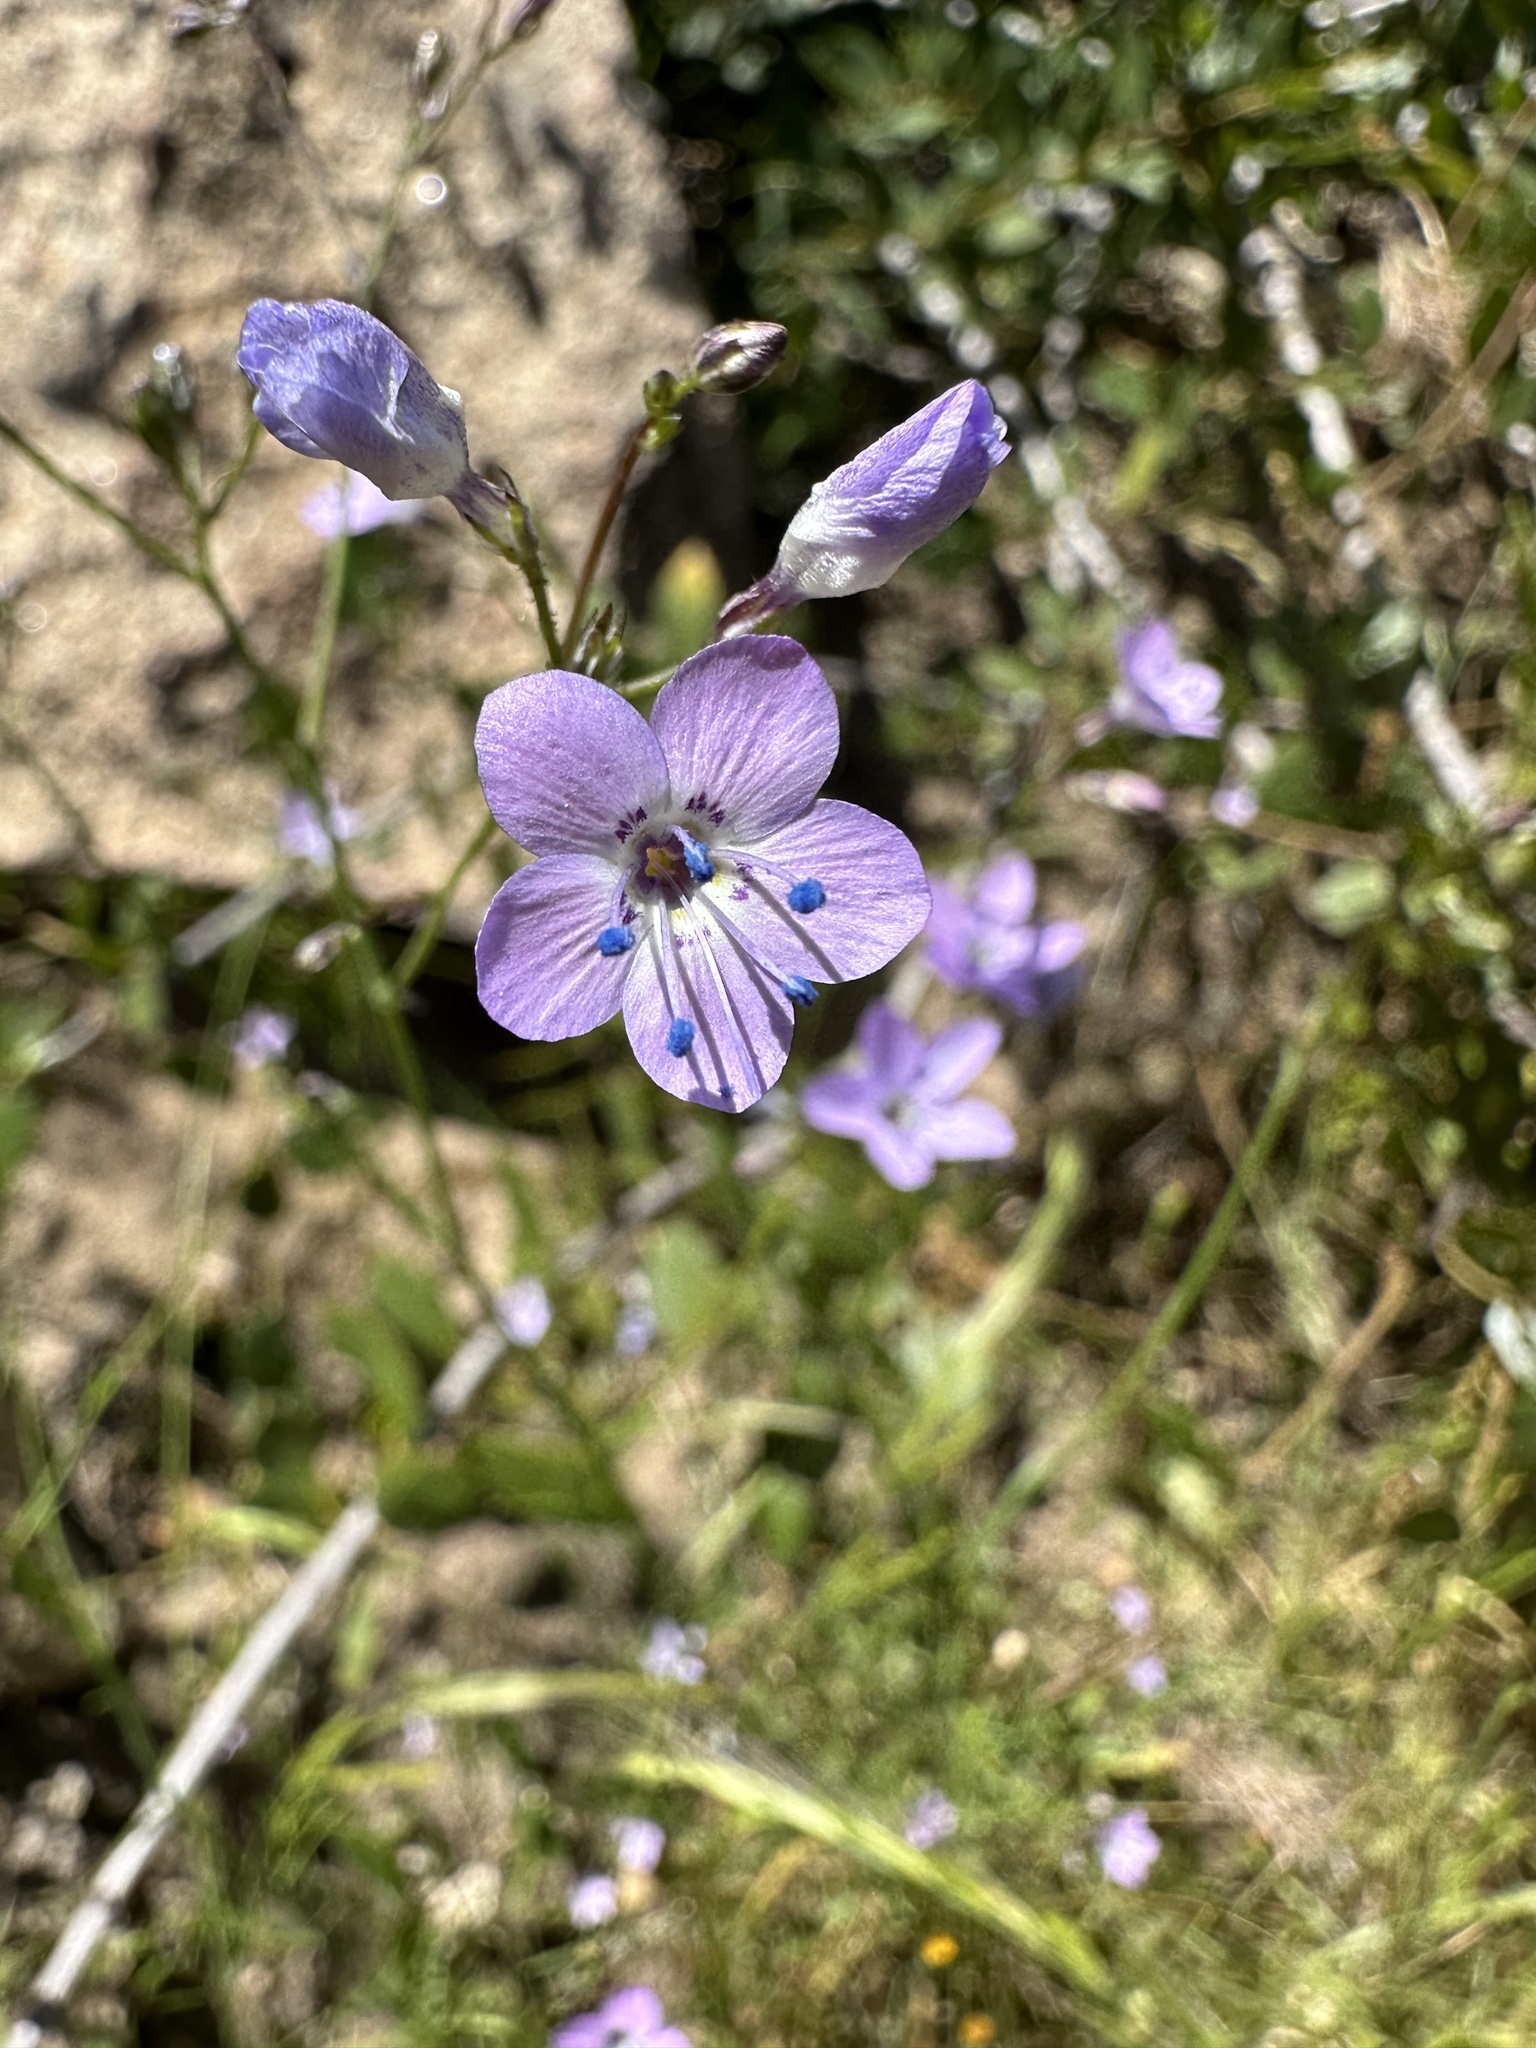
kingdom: Plantae
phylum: Tracheophyta
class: Magnoliopsida
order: Ericales
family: Polemoniaceae
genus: Saltugilia
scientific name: Saltugilia caruifolia
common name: Carawayleaf gilia
